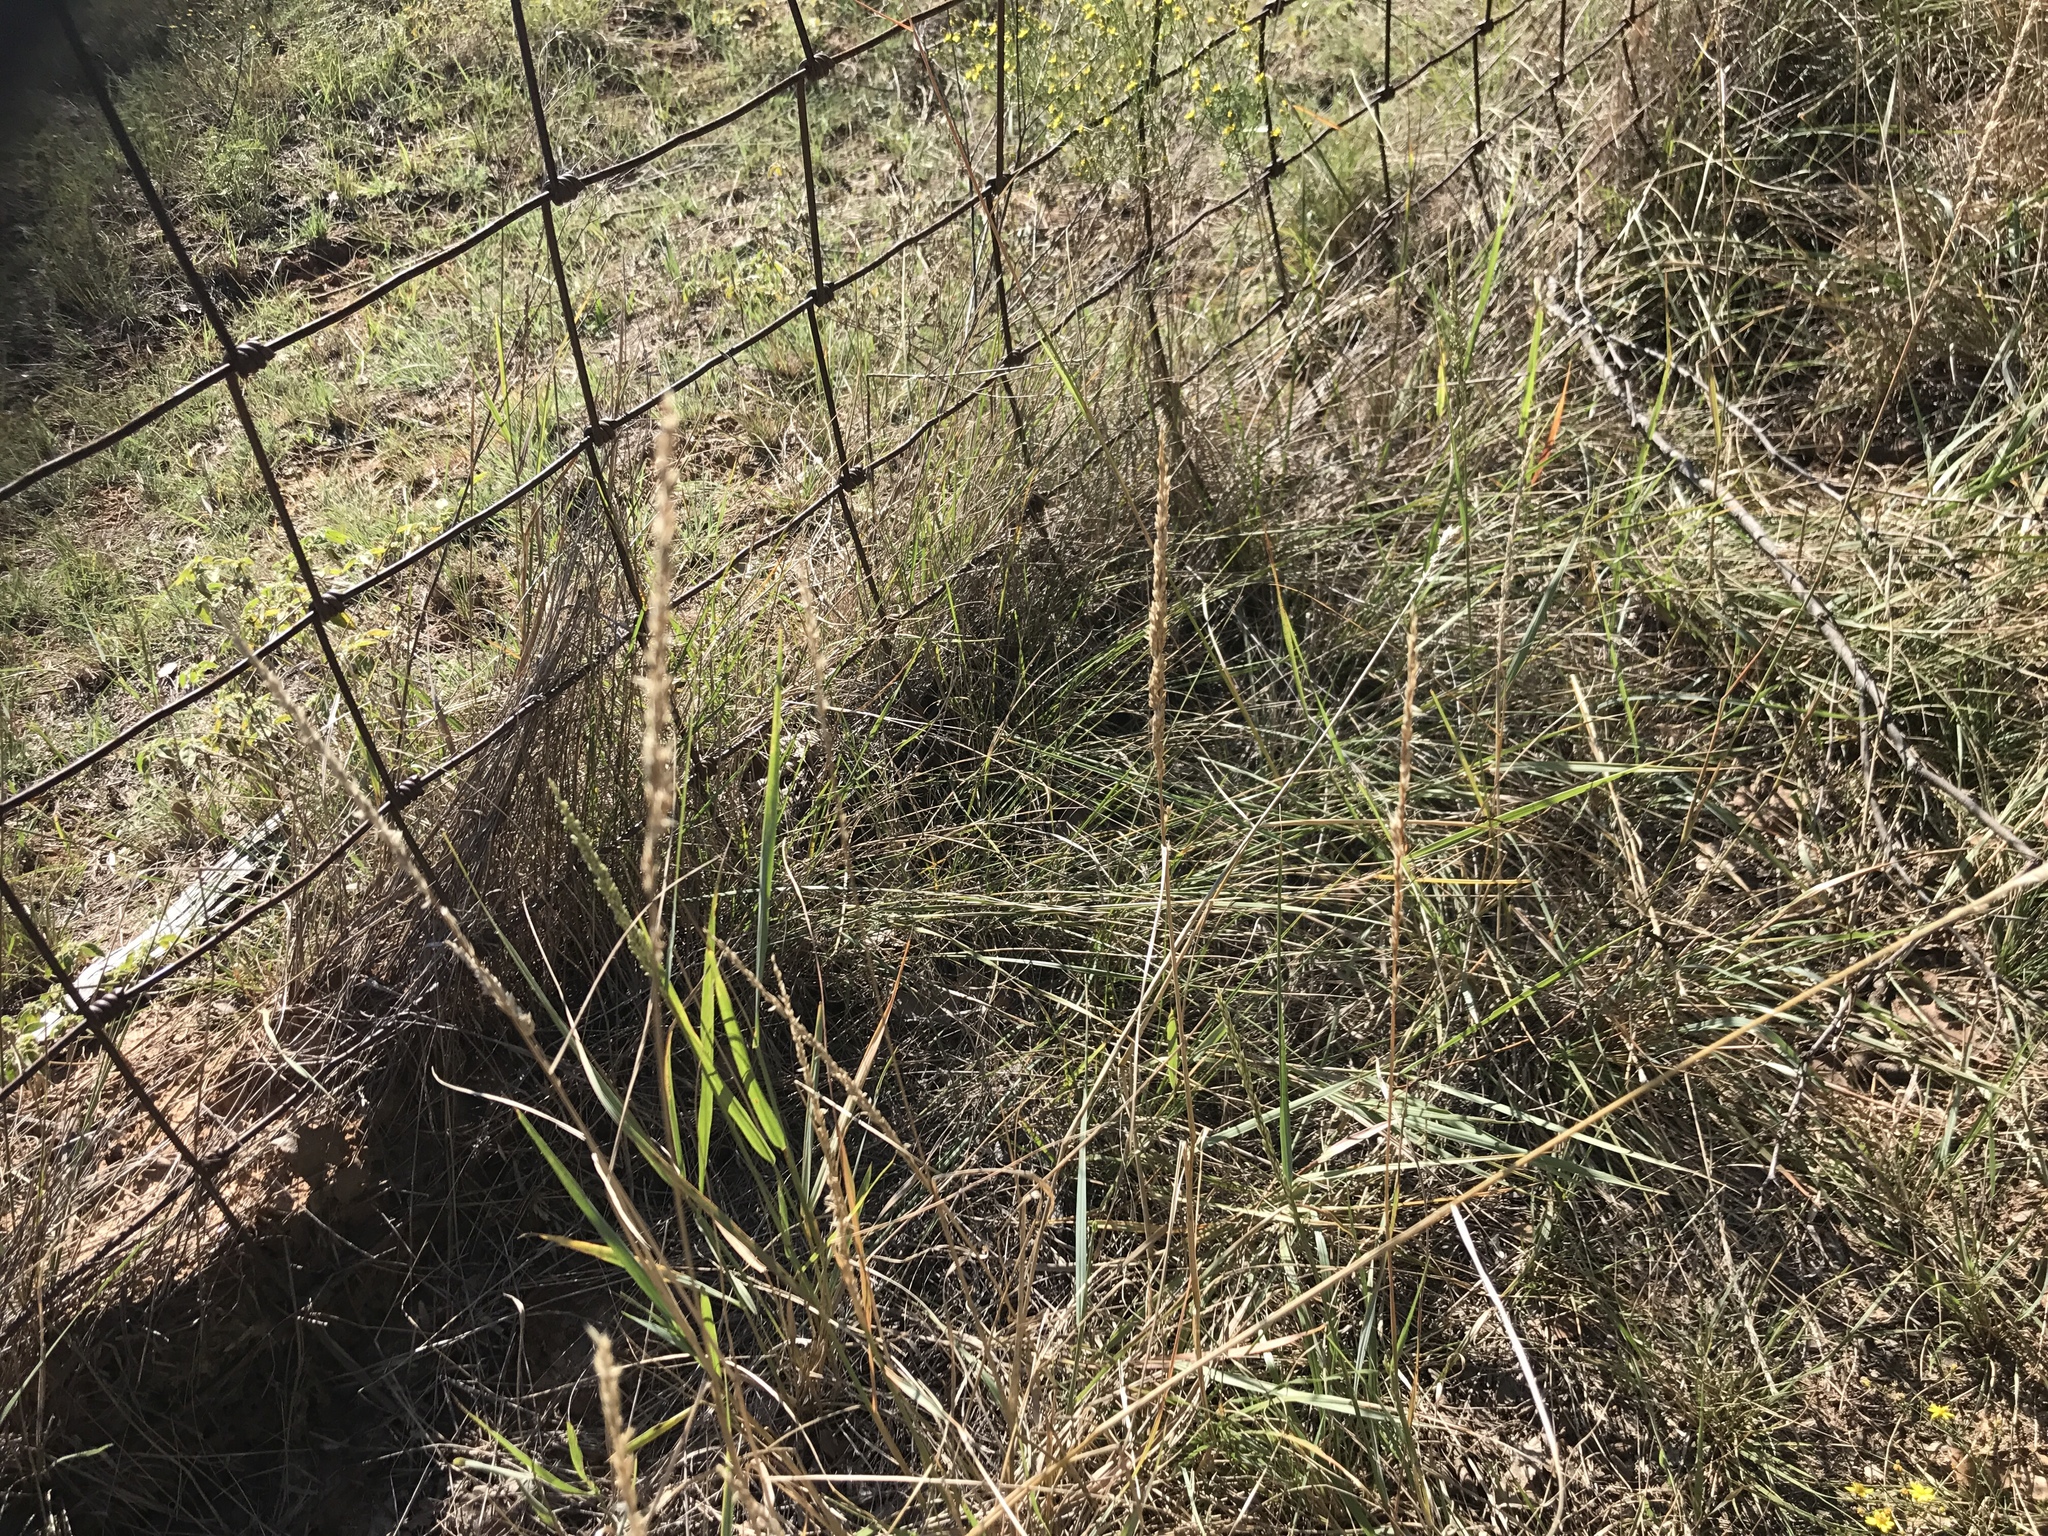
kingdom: Plantae
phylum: Tracheophyta
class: Liliopsida
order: Poales
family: Poaceae
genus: Tridens
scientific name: Tridens albescens
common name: White tridens
